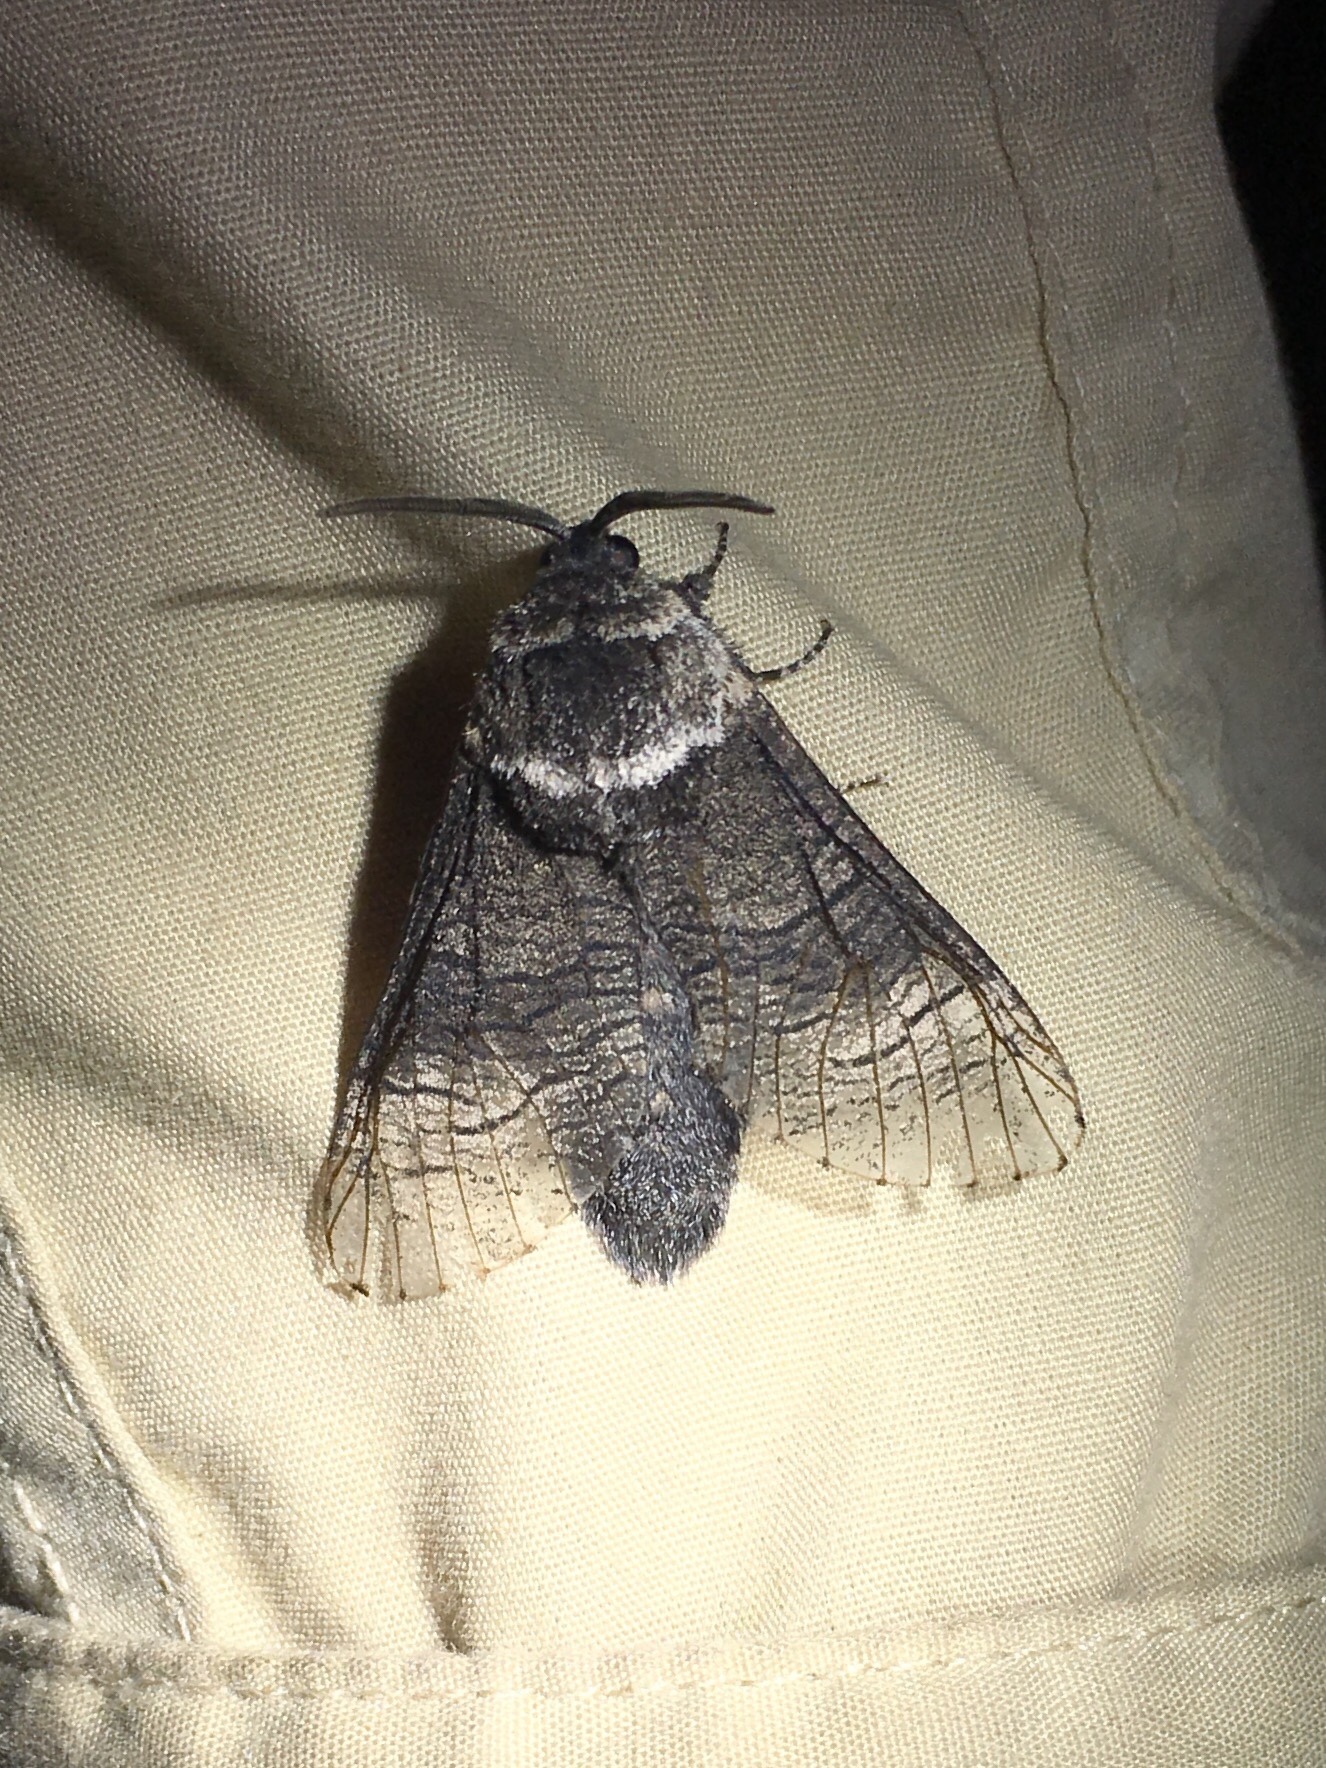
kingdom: Animalia
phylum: Arthropoda
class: Insecta
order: Lepidoptera
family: Cossidae
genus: Acossus
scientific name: Acossus centerensis
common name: Poplar carpenterworm moth
